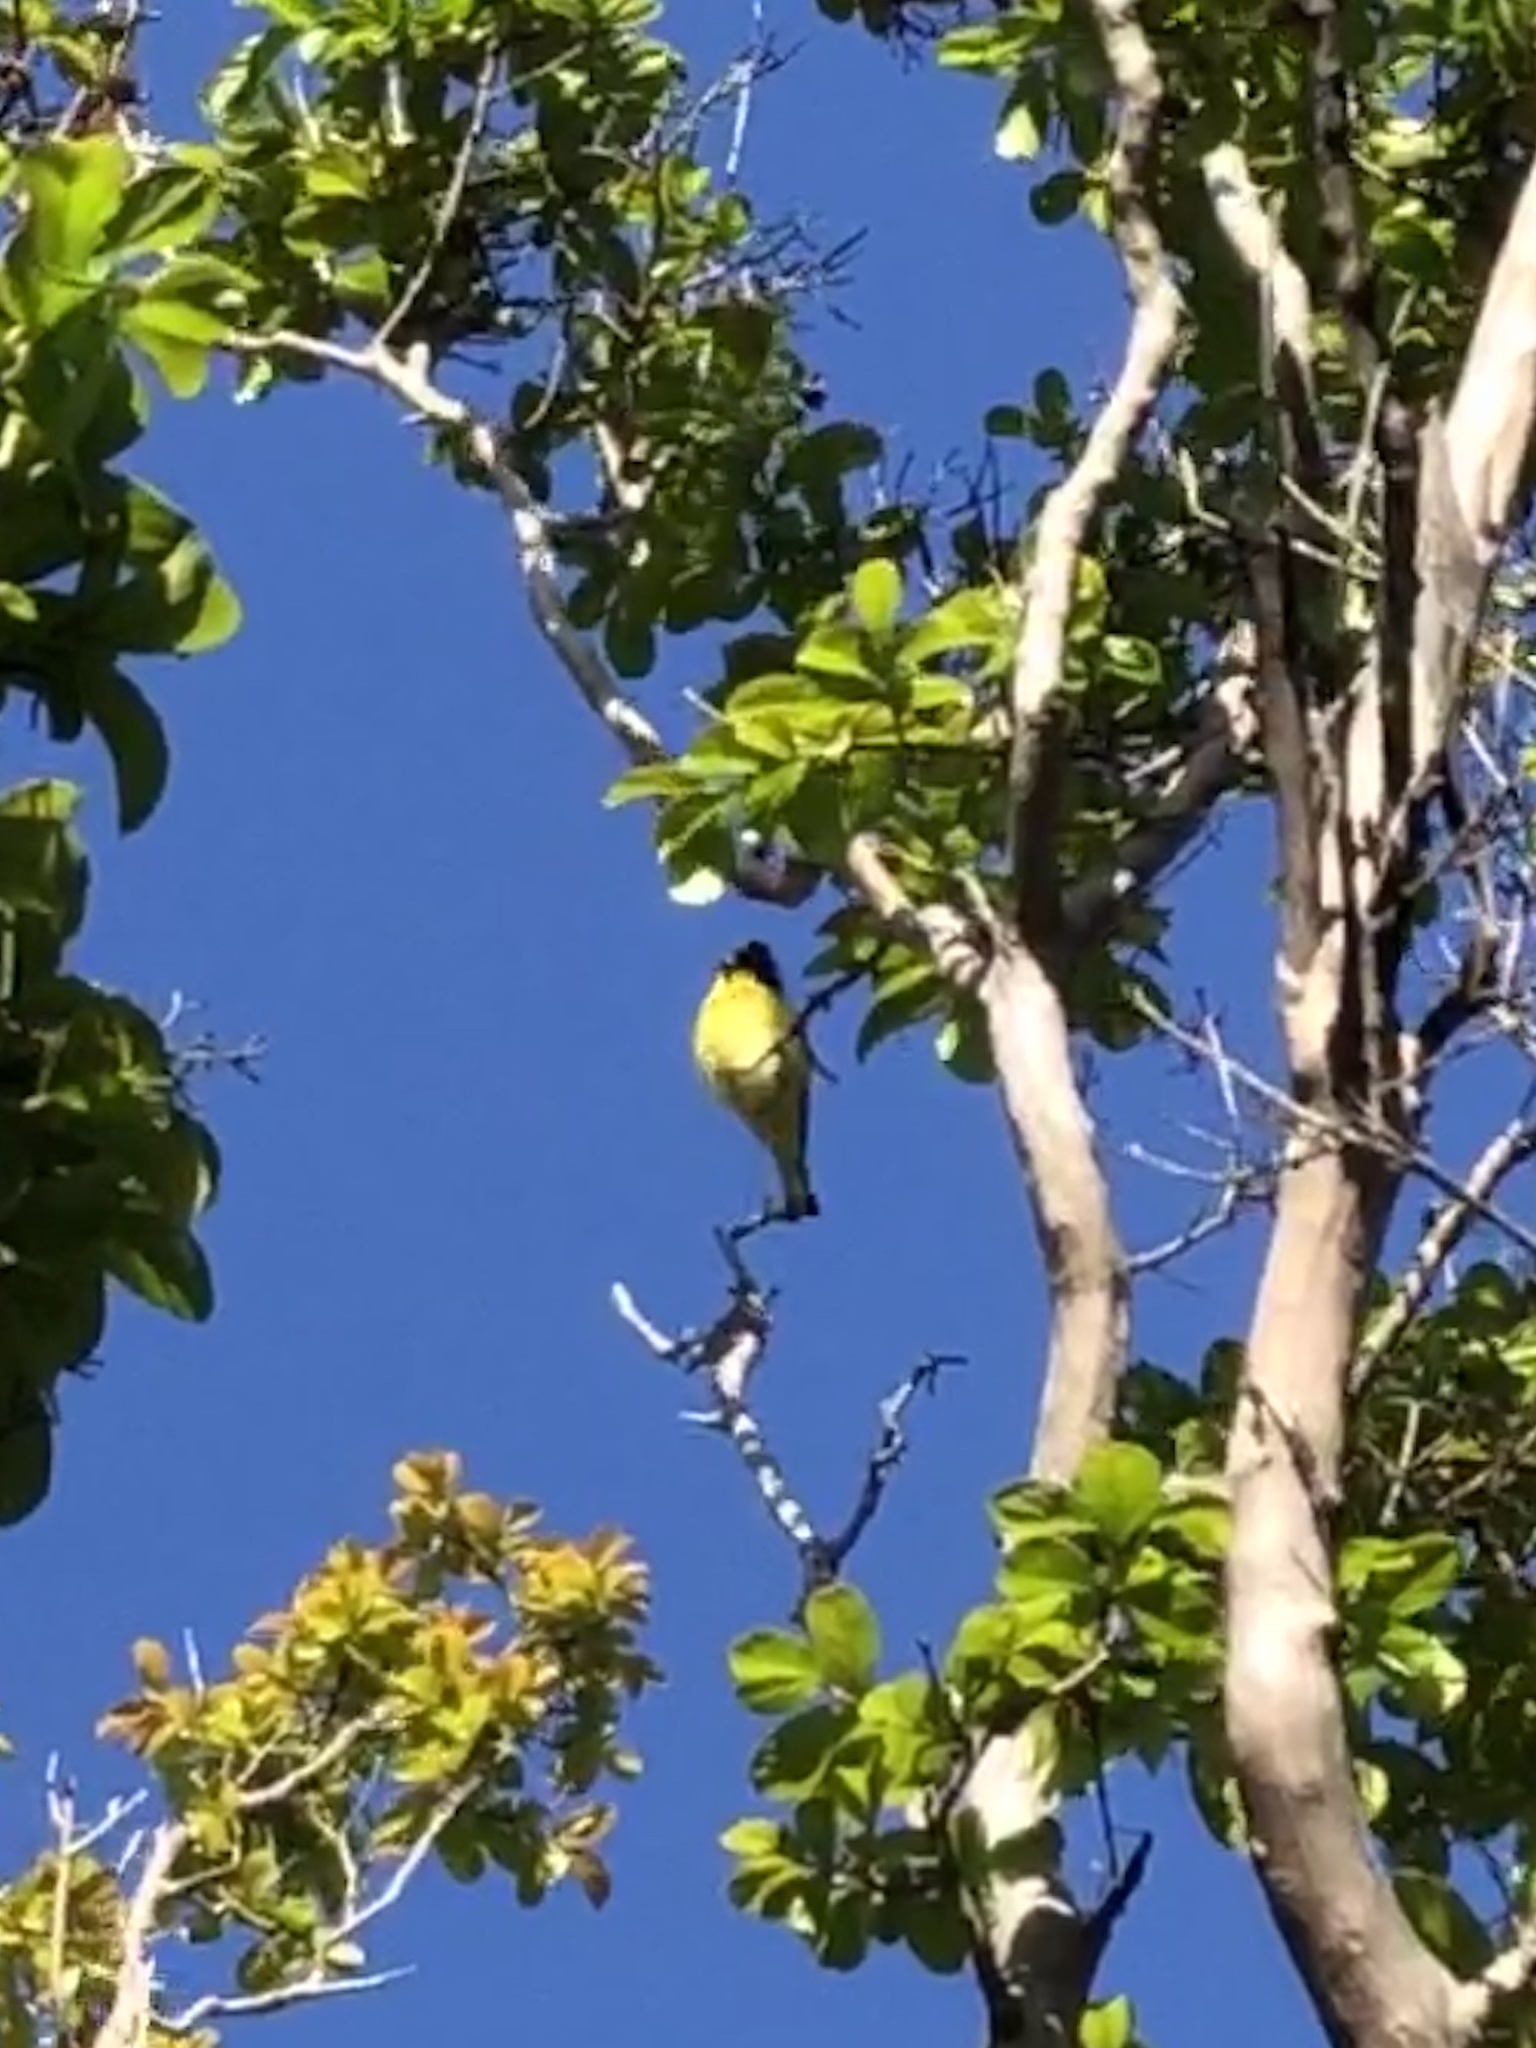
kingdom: Animalia
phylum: Chordata
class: Aves
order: Passeriformes
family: Fringillidae
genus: Spinus
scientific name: Spinus psaltria
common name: Lesser goldfinch
